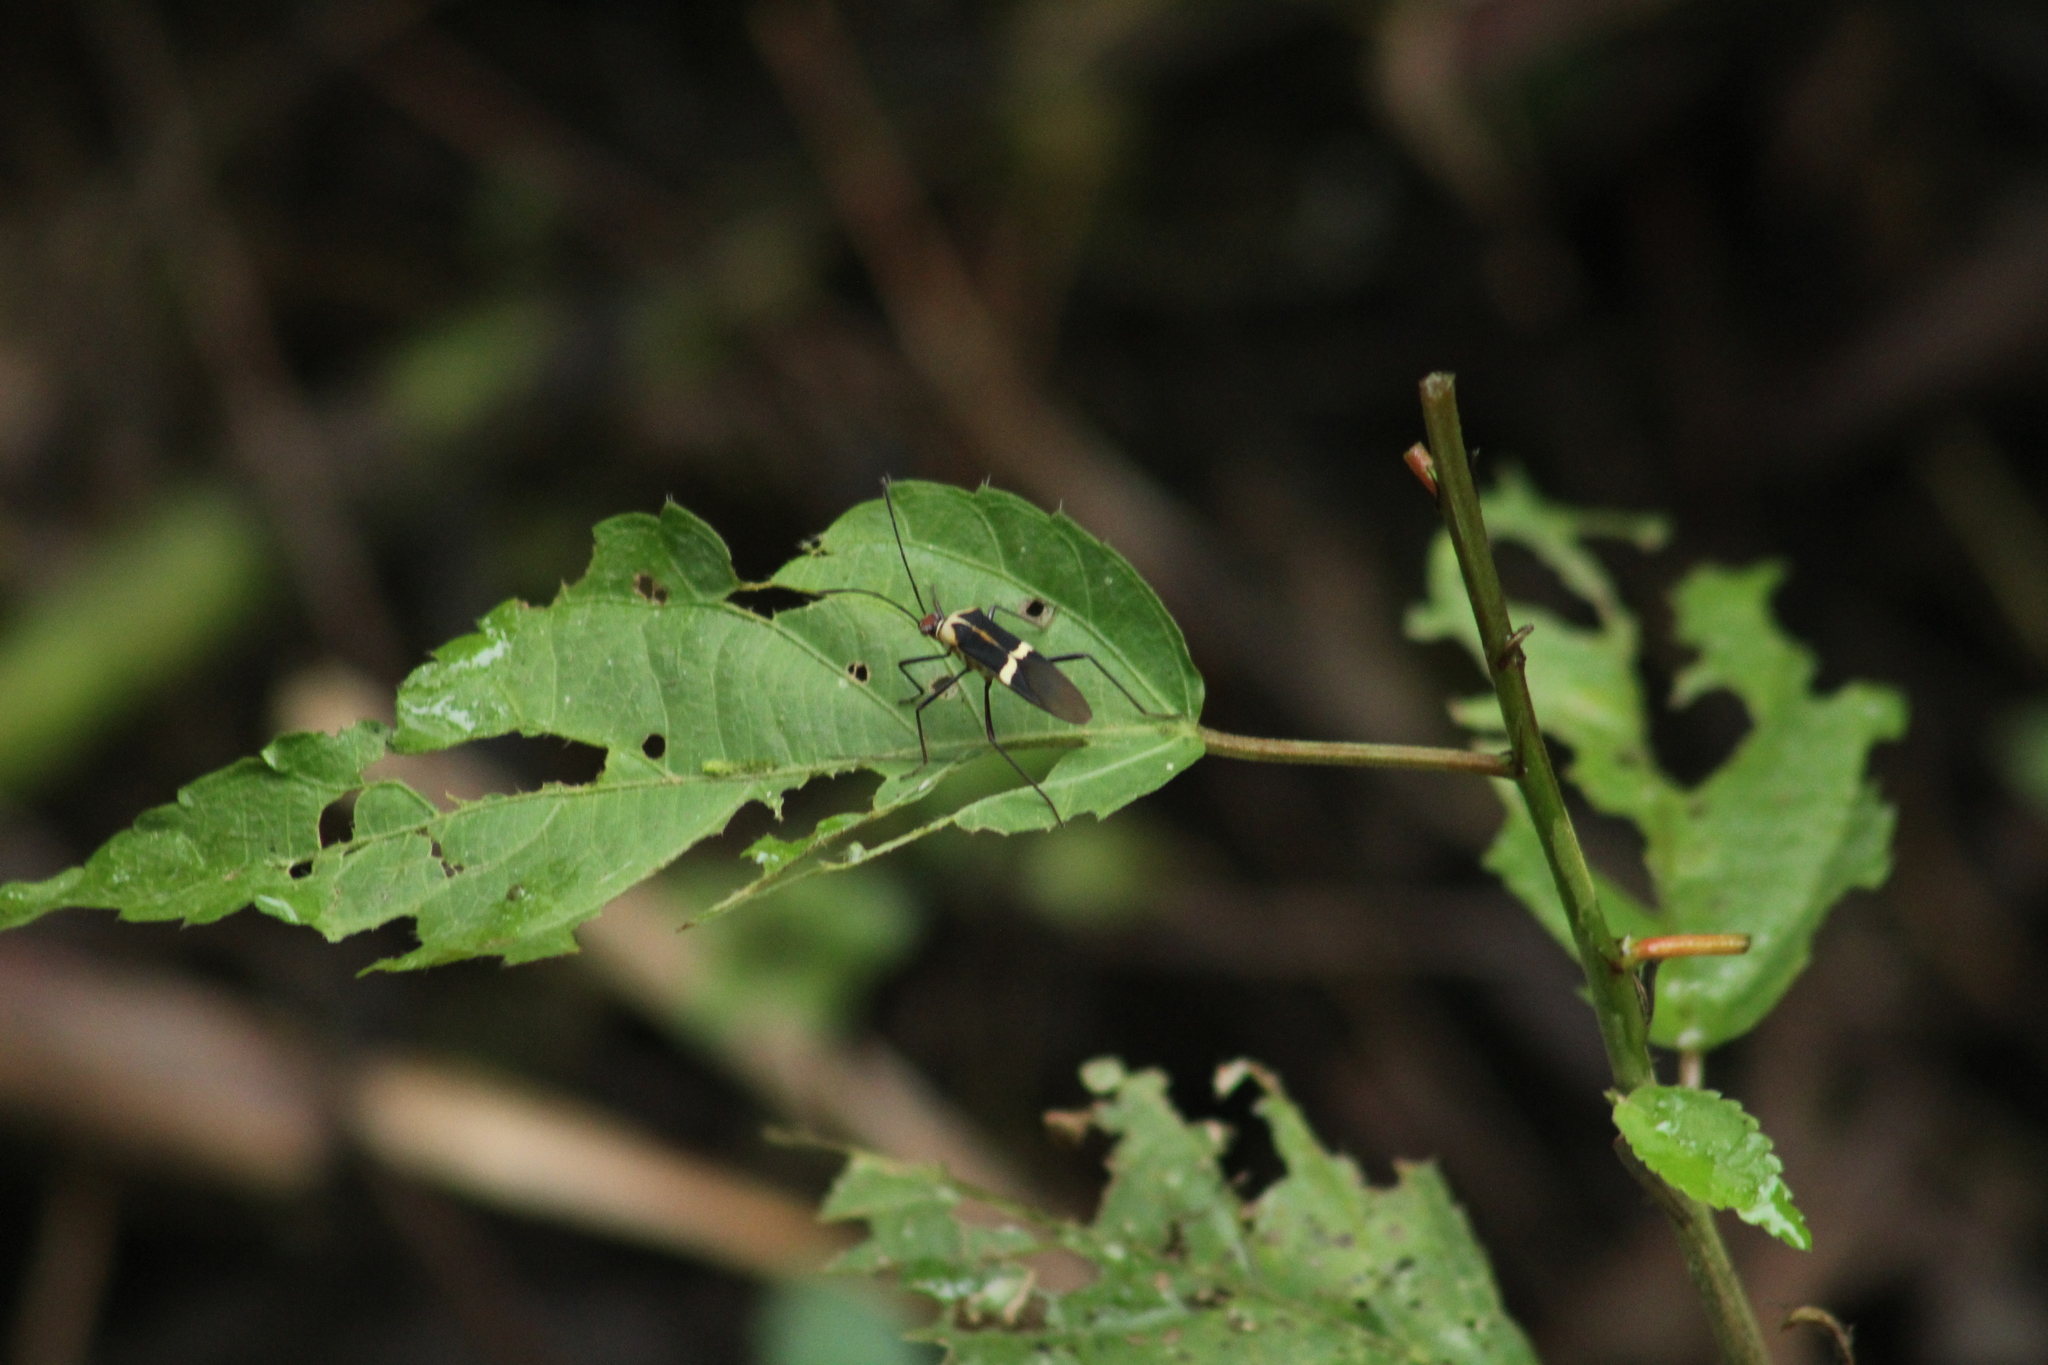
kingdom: Animalia
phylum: Arthropoda
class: Insecta
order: Hemiptera
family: Coreidae
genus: Hypselonotus
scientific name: Hypselonotus interruptus
